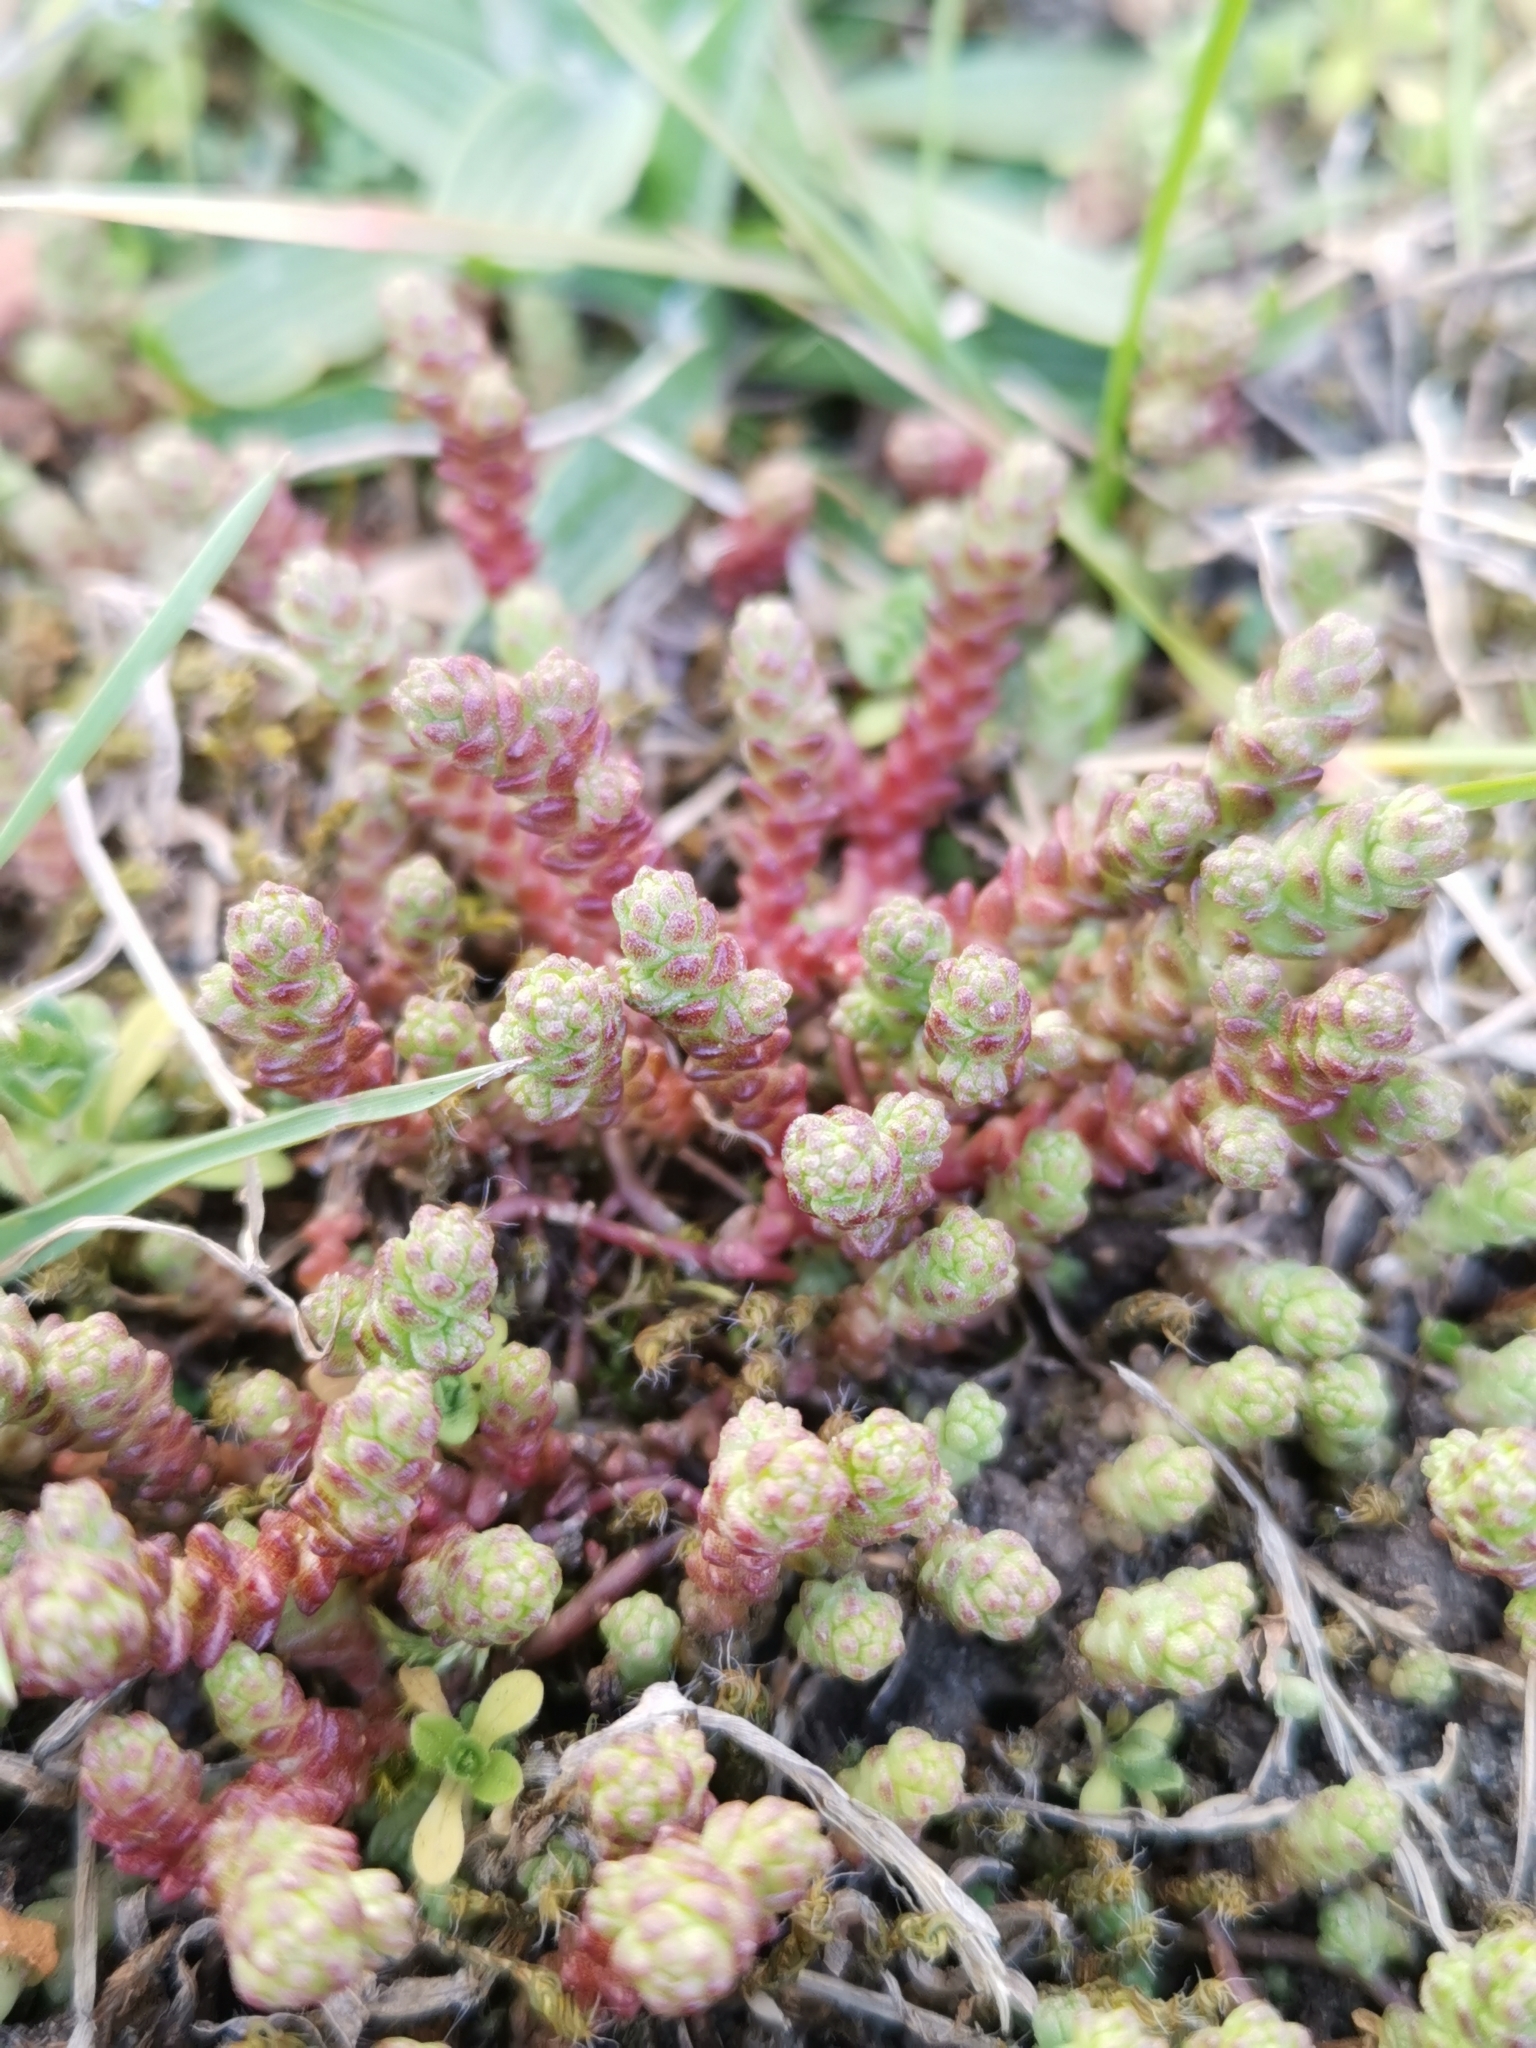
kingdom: Plantae
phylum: Tracheophyta
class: Magnoliopsida
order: Saxifragales
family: Crassulaceae
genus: Sedum
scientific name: Sedum acre
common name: Biting stonecrop
